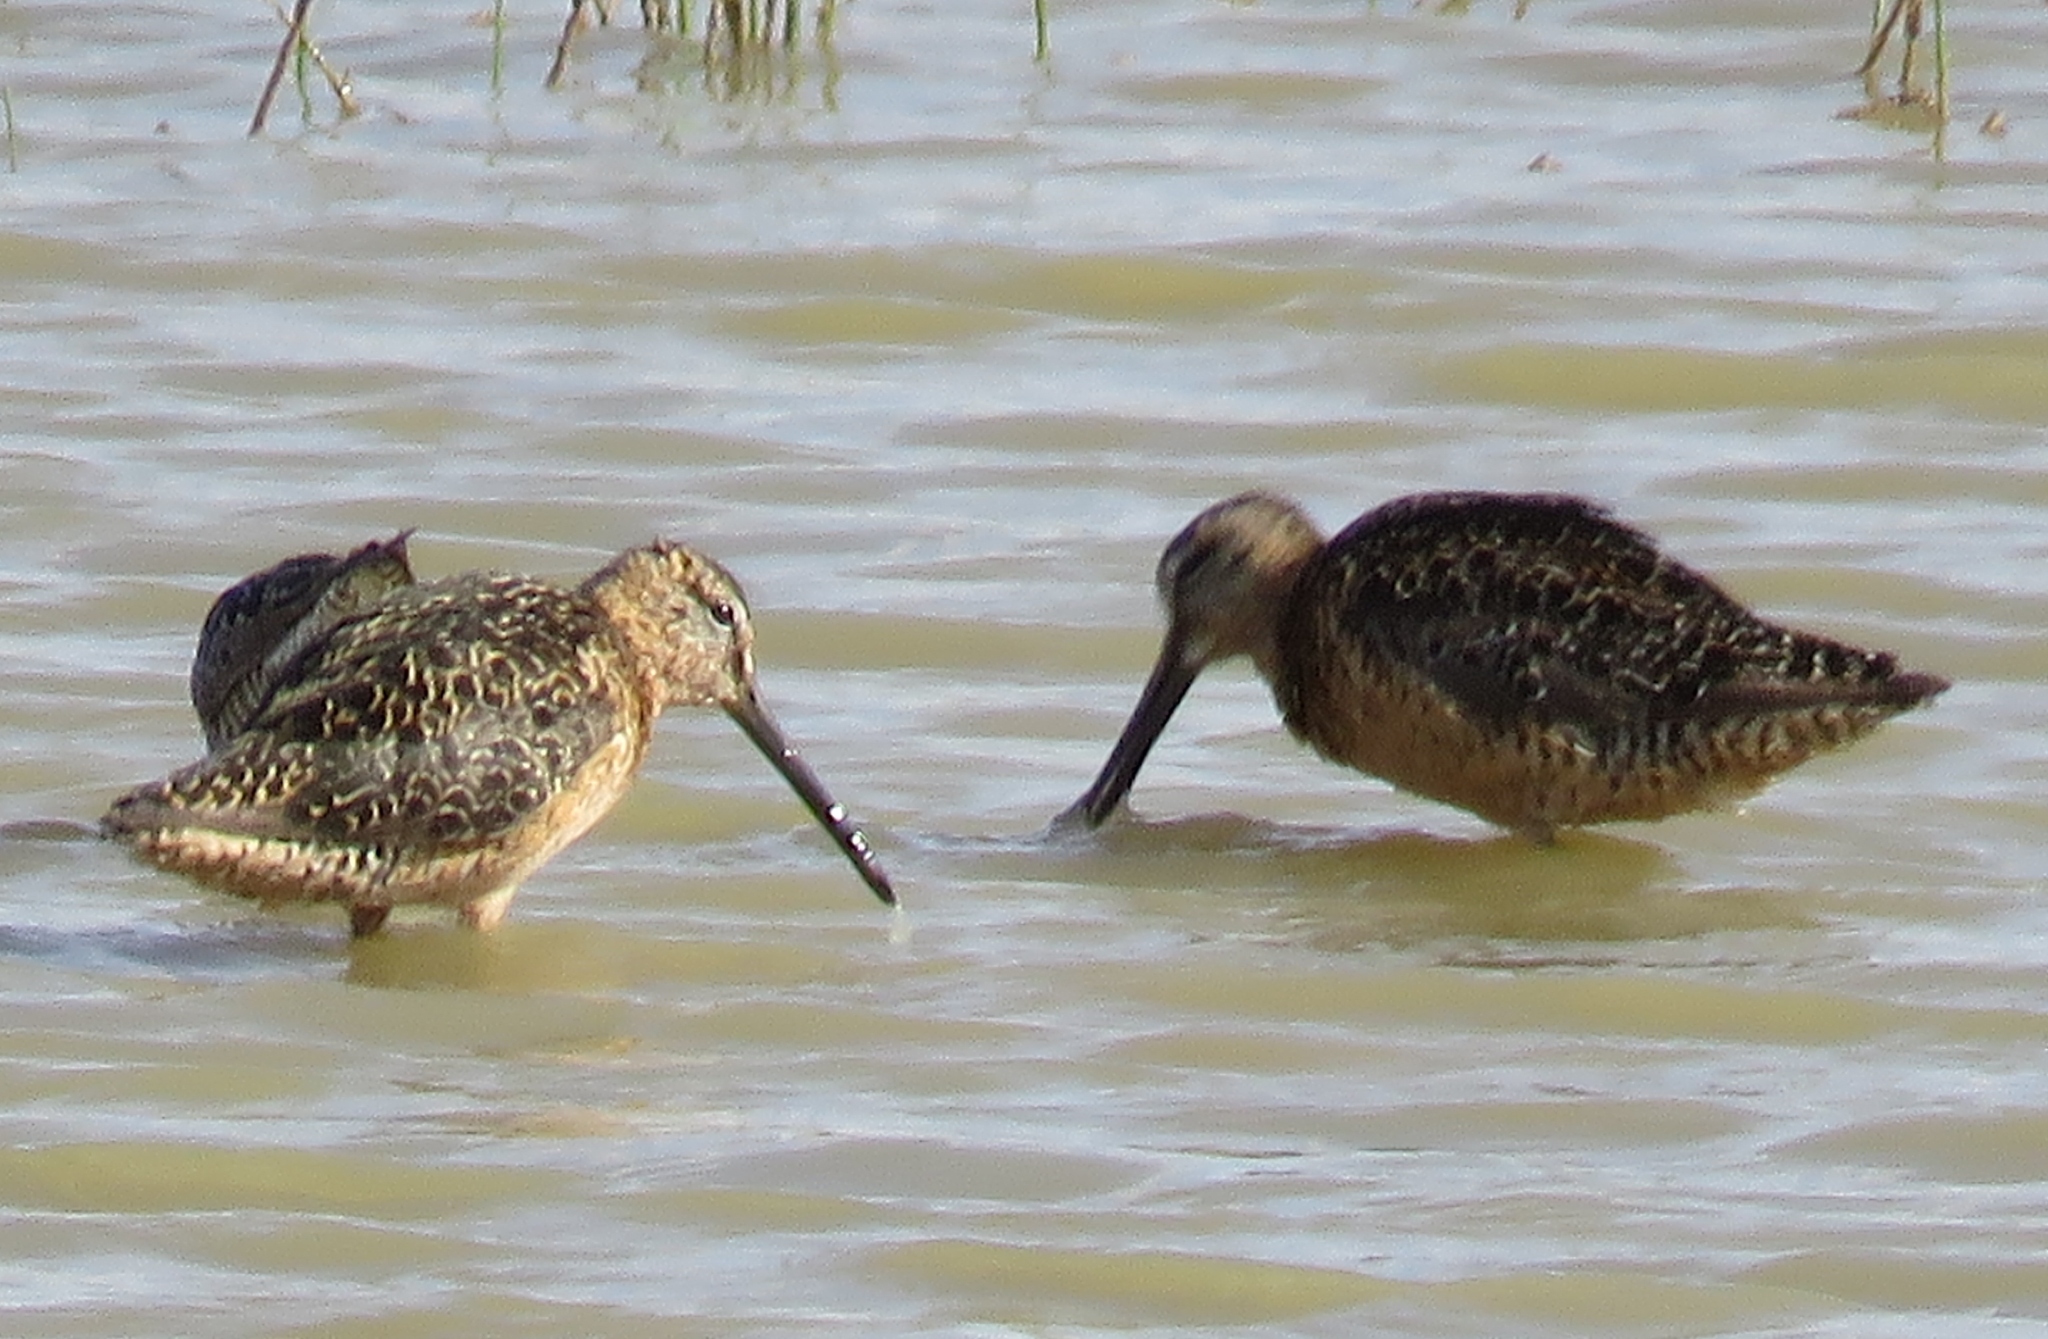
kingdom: Animalia
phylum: Chordata
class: Aves
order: Charadriiformes
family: Scolopacidae
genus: Limnodromus
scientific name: Limnodromus scolopaceus
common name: Long-billed dowitcher
